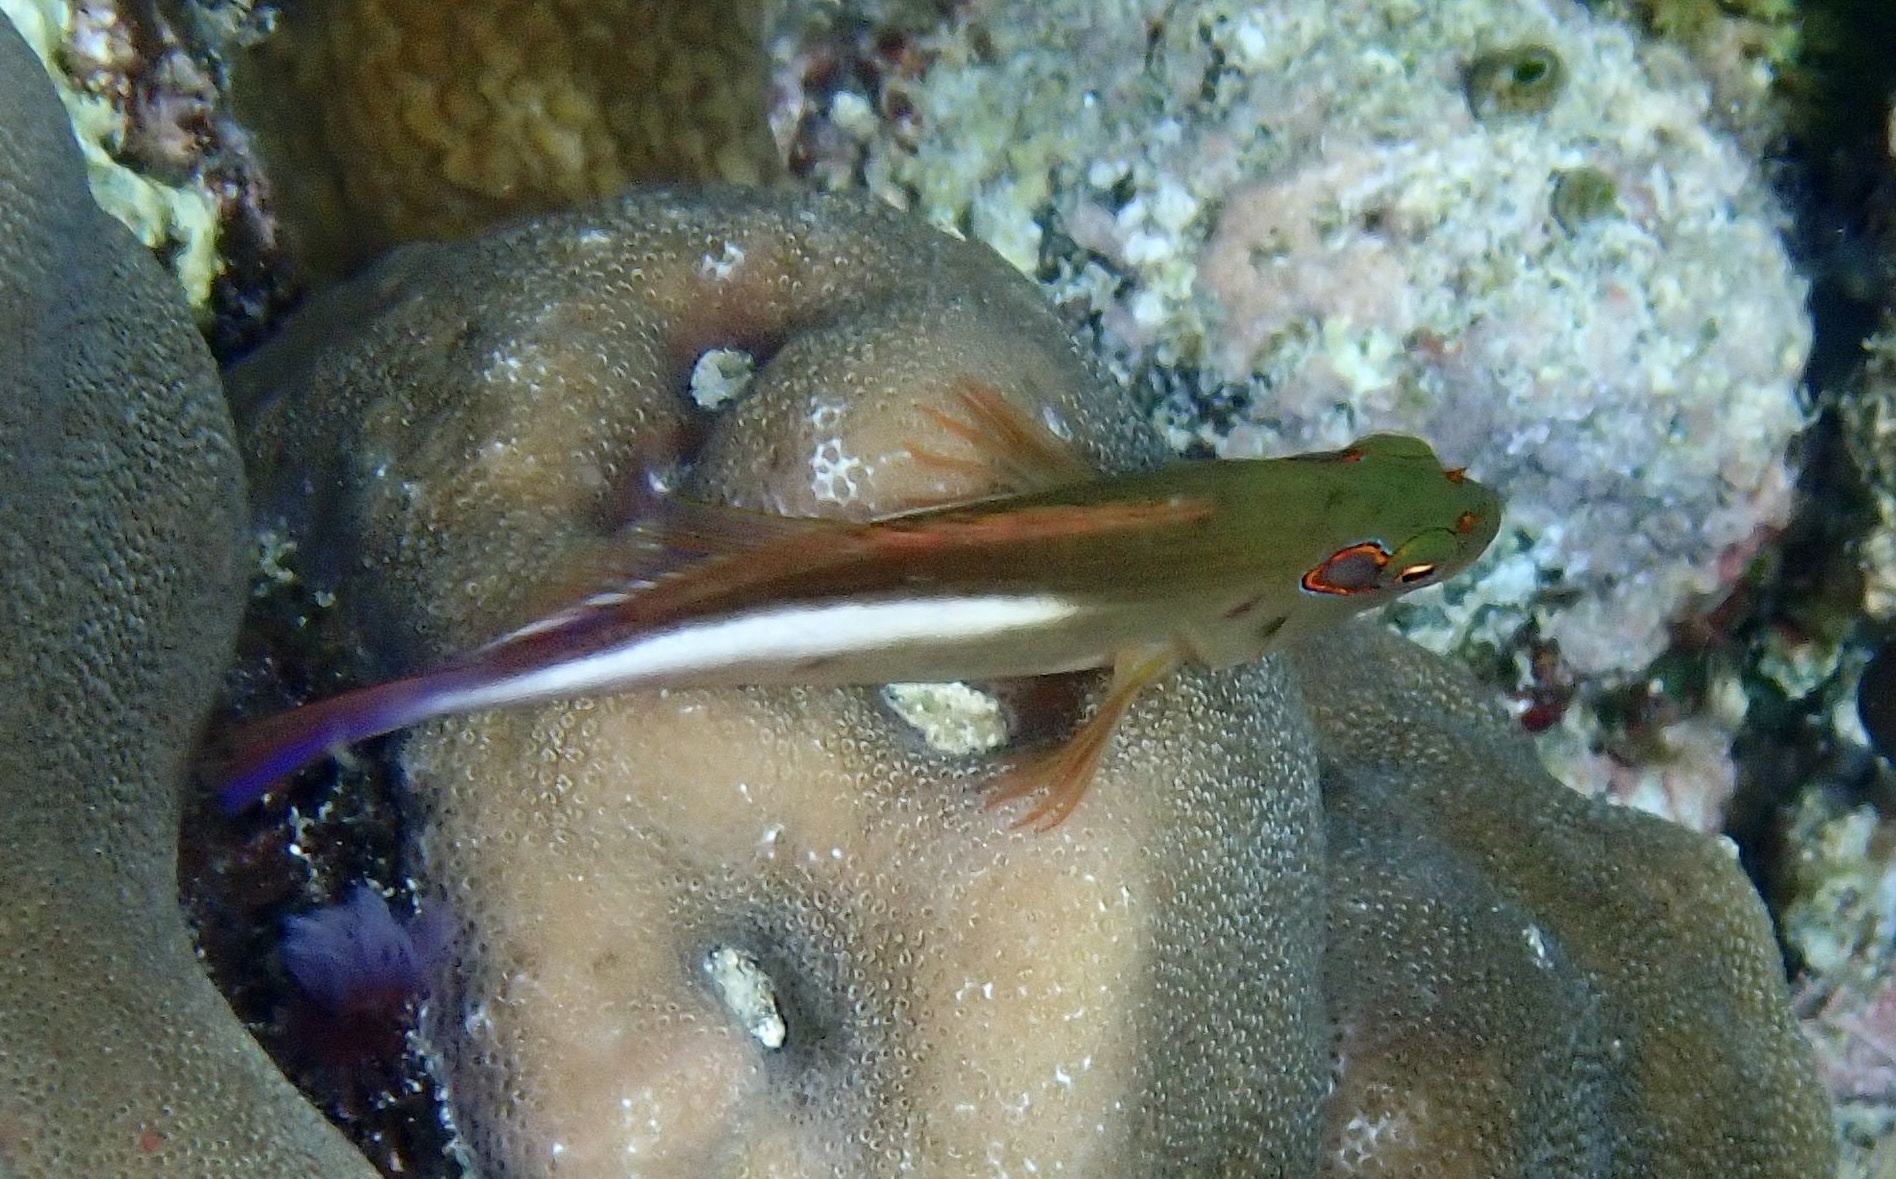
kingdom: Animalia
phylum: Chordata
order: Perciformes
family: Cirrhitidae
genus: Paracirrhites
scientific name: Paracirrhites arcatus
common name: Arc-eye hawkfish
